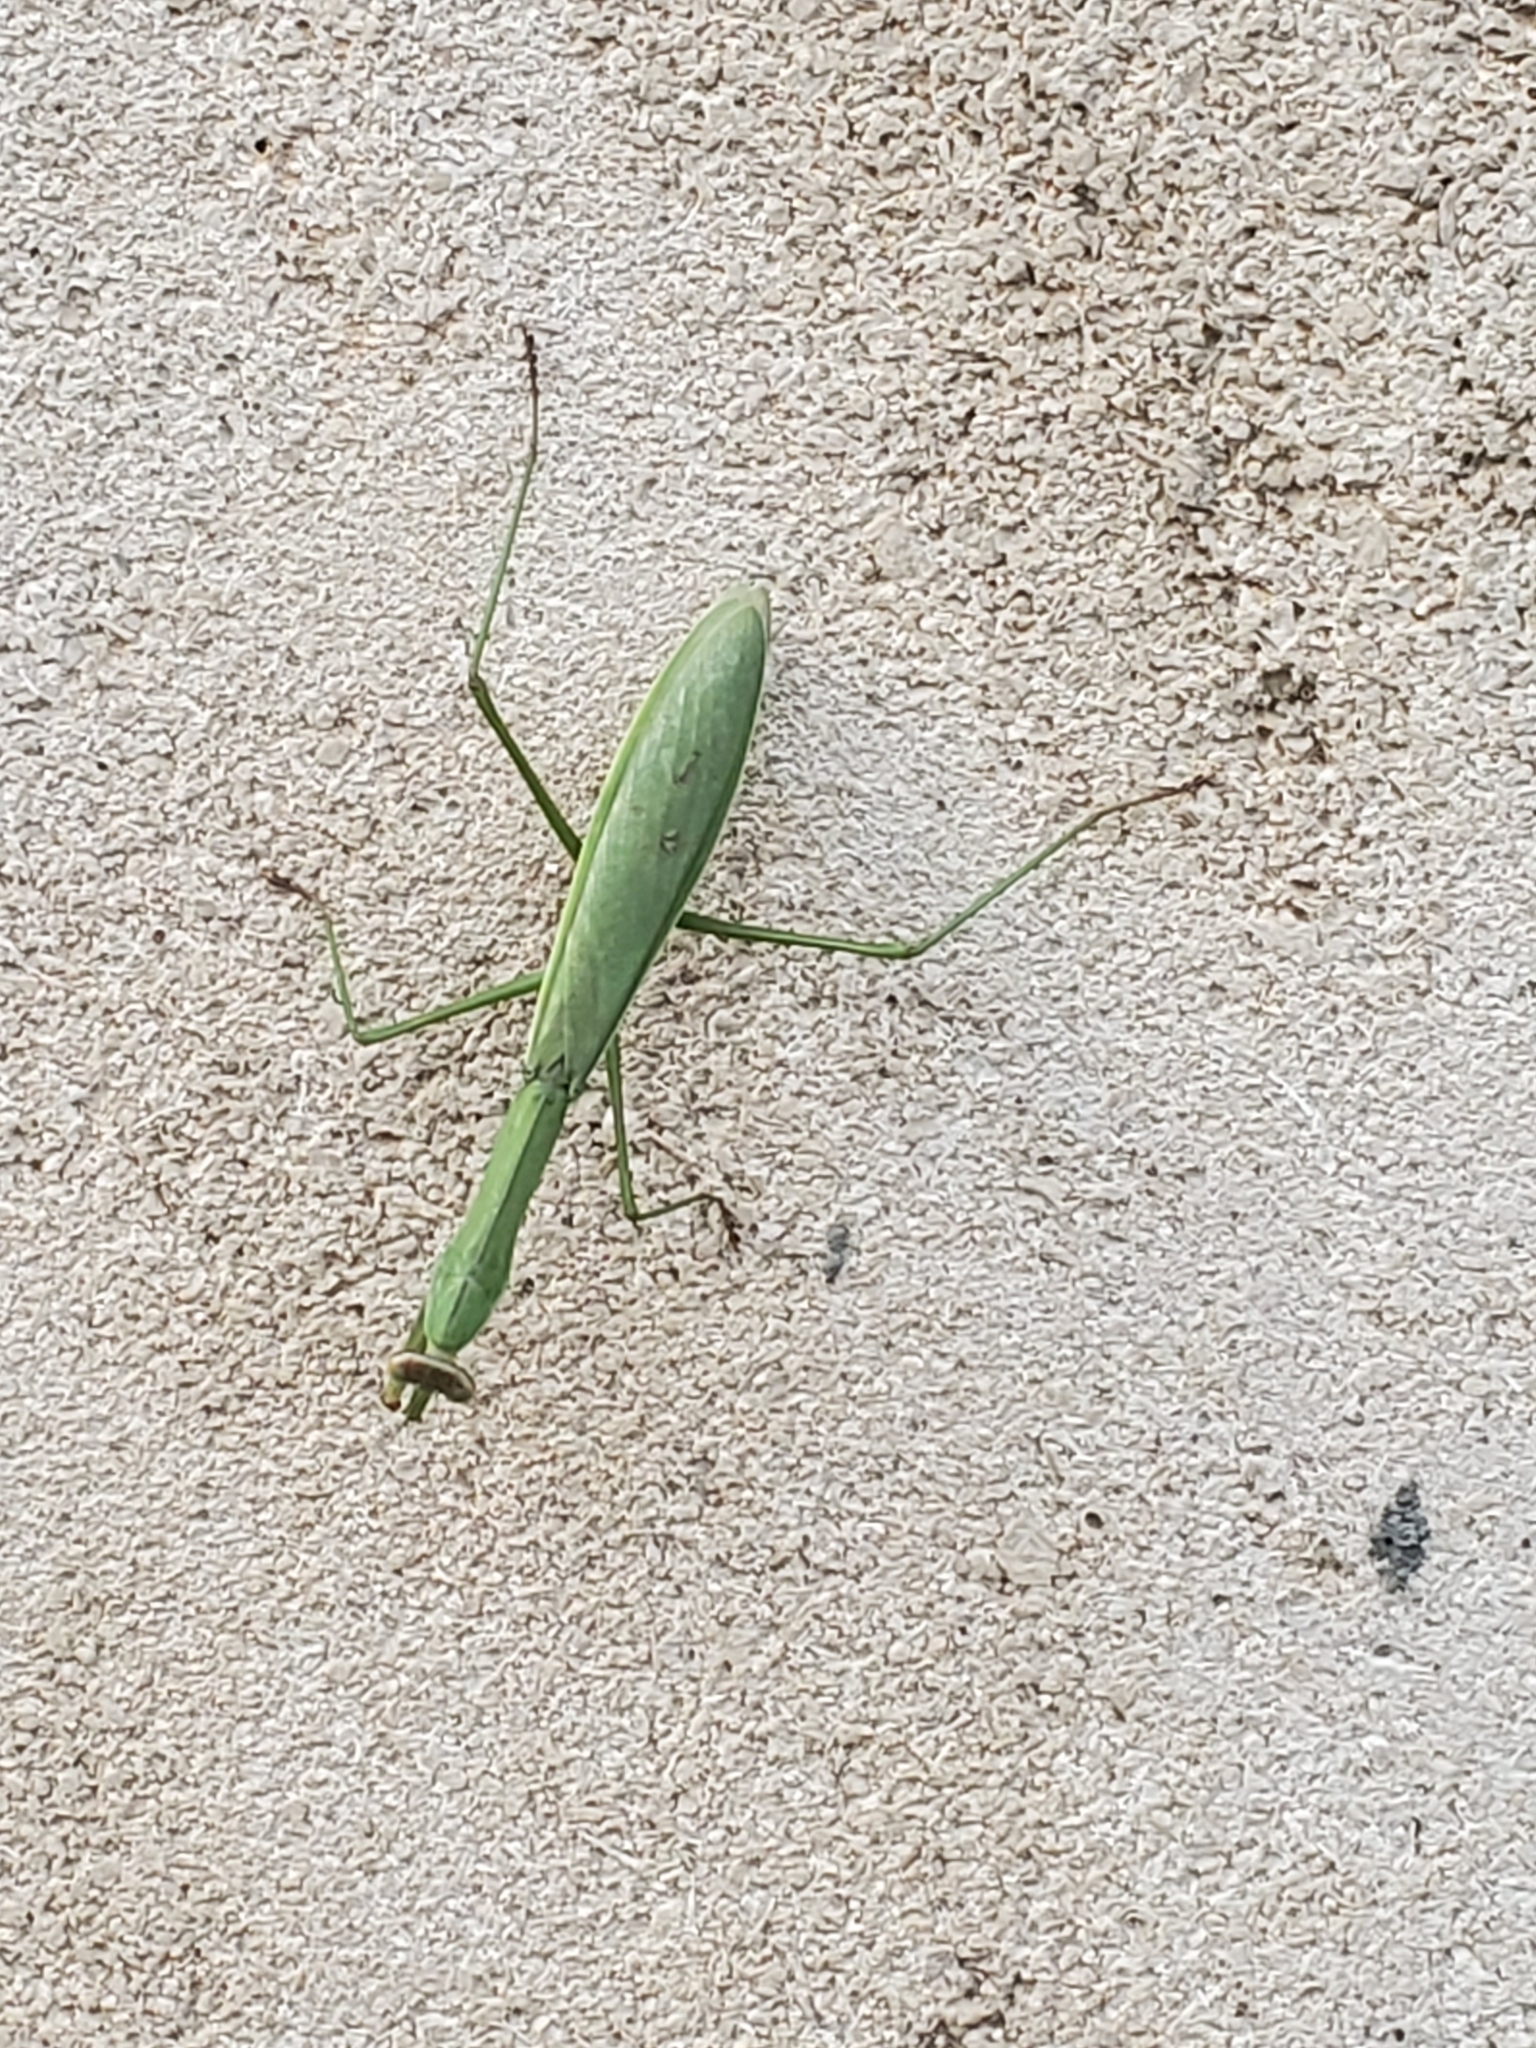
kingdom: Animalia
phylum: Arthropoda
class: Insecta
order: Mantodea
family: Mantidae
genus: Tenodera
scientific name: Tenodera sinensis
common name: Chinese mantis
